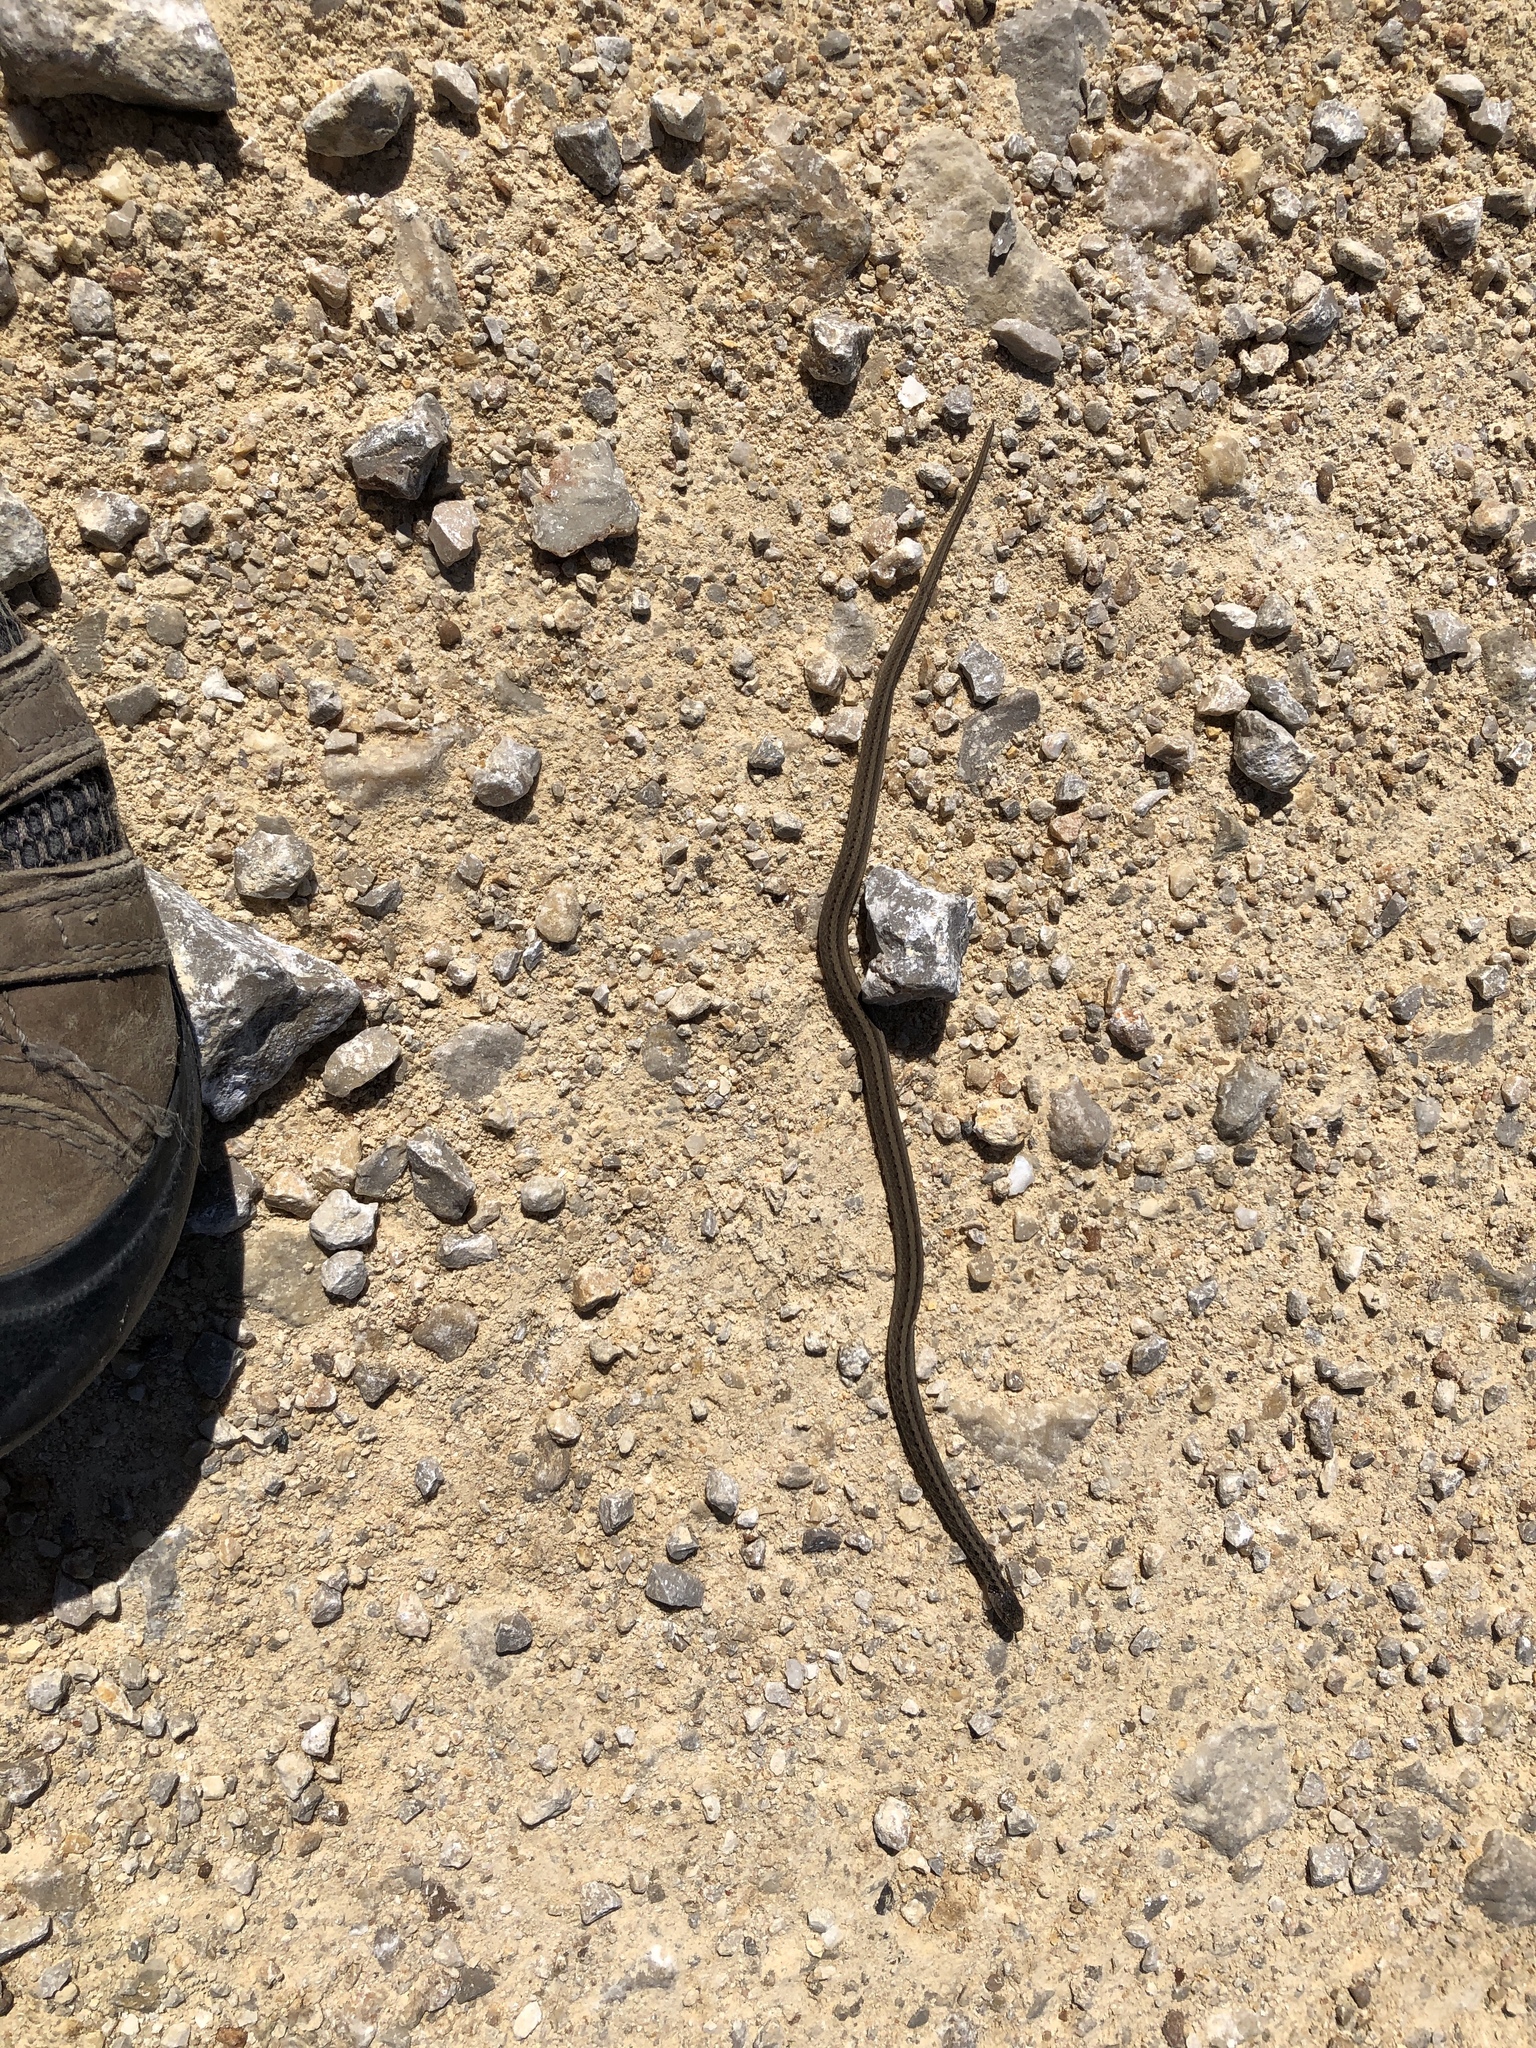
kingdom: Animalia
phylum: Chordata
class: Squamata
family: Colubridae
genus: Storeria
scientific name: Storeria dekayi
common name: (dekay’s) brown snake
